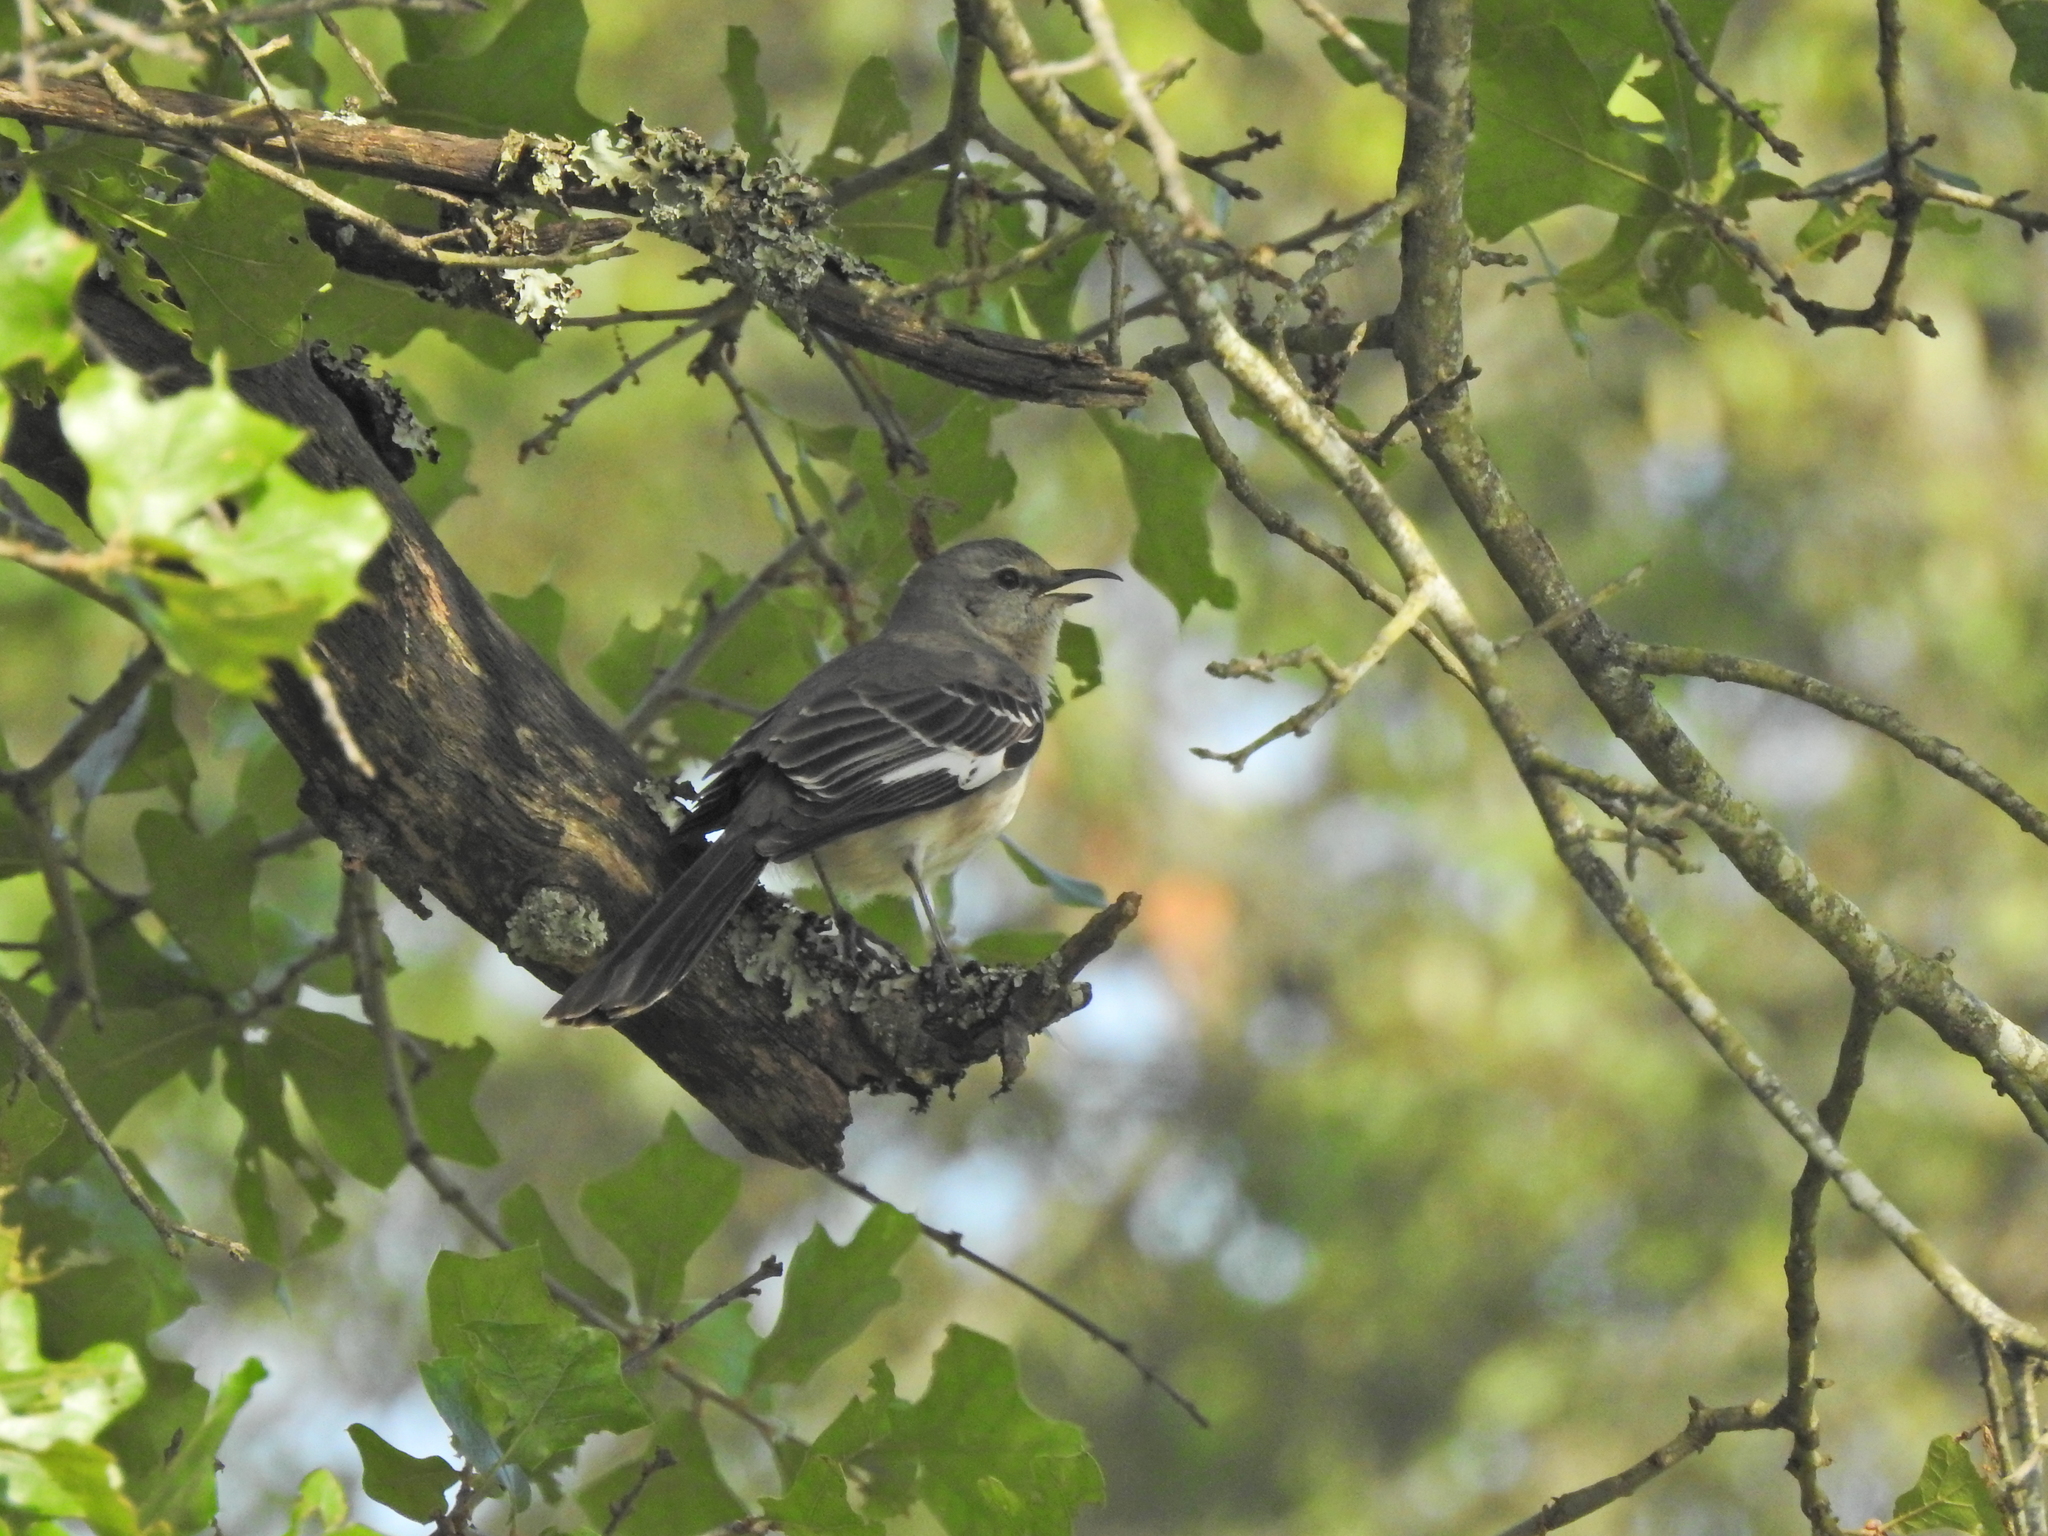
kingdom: Animalia
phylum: Chordata
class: Aves
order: Passeriformes
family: Mimidae
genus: Mimus
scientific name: Mimus polyglottos
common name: Northern mockingbird
